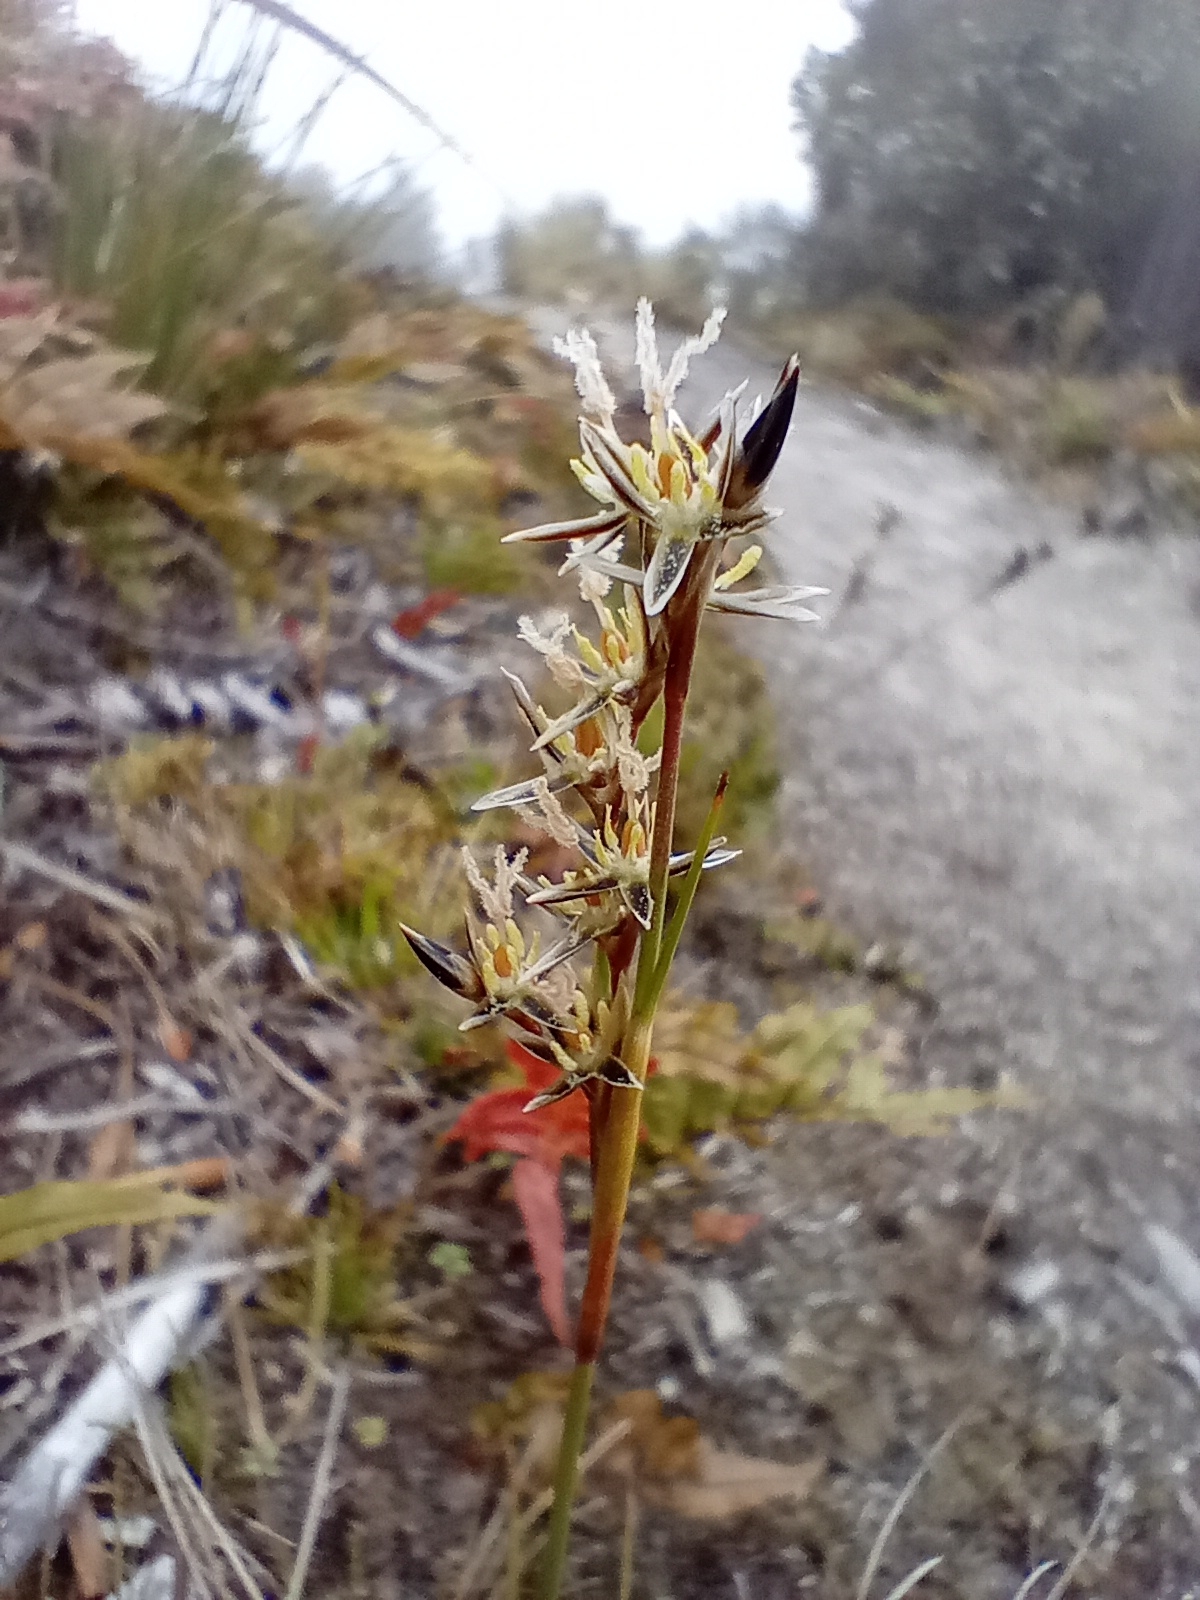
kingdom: Plantae
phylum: Tracheophyta
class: Liliopsida
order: Poales
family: Juncaceae
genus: Juncus
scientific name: Juncus squarrosus
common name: Heath rush
